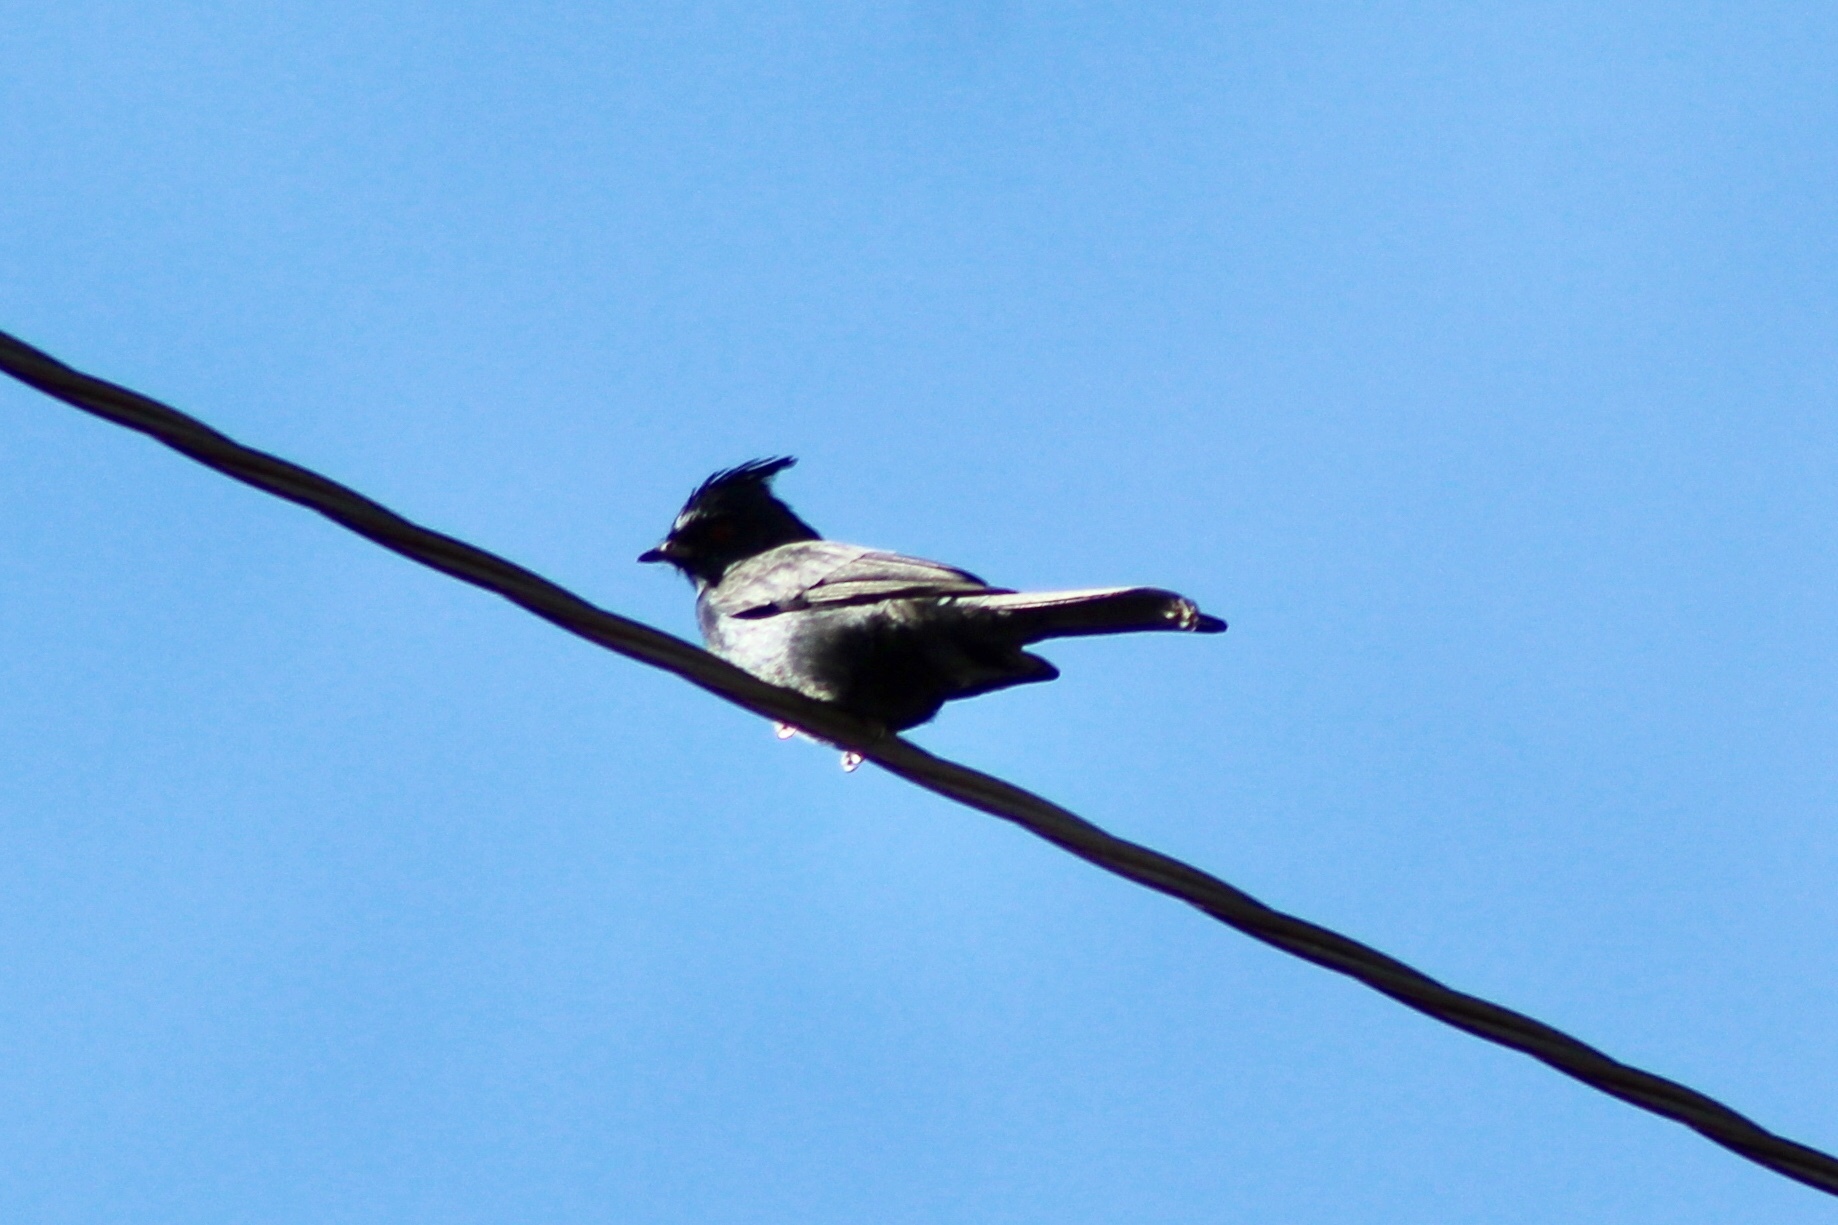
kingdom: Animalia
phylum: Chordata
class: Aves
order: Passeriformes
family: Ptilogonatidae
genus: Phainopepla
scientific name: Phainopepla nitens
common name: Phainopepla
